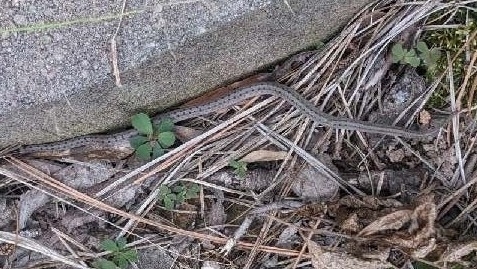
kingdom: Animalia
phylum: Chordata
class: Squamata
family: Colubridae
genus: Storeria
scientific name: Storeria dekayi
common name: (dekay’s) brown snake
